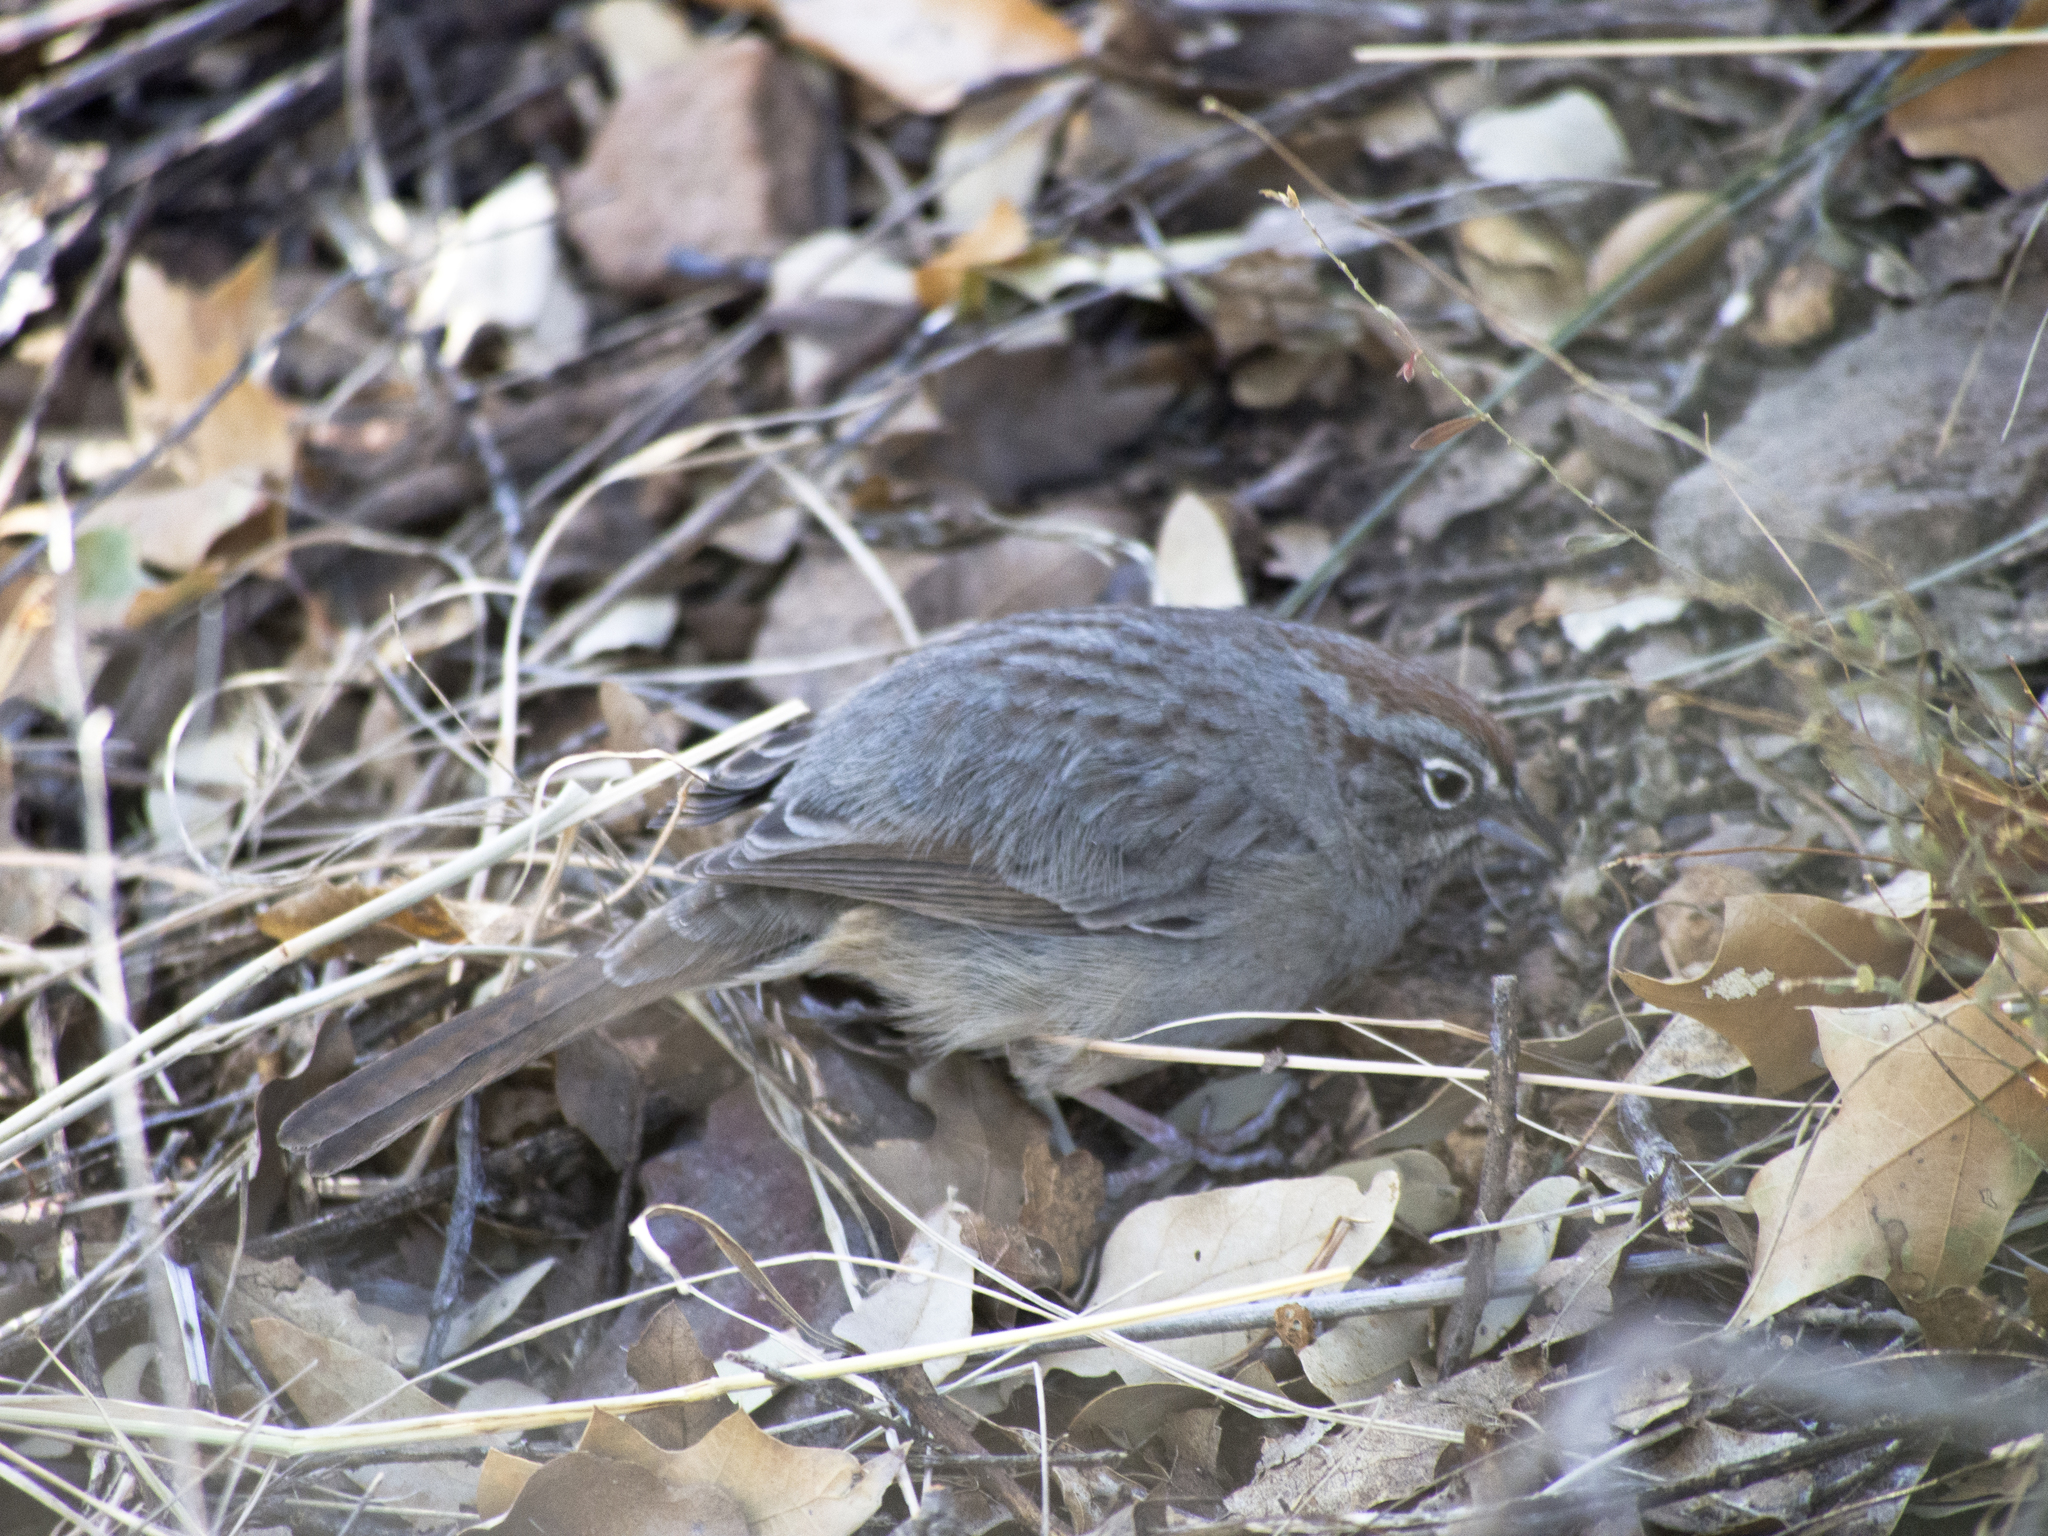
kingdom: Animalia
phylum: Chordata
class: Aves
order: Passeriformes
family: Passerellidae
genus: Aimophila
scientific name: Aimophila ruficeps
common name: Rufous-crowned sparrow
